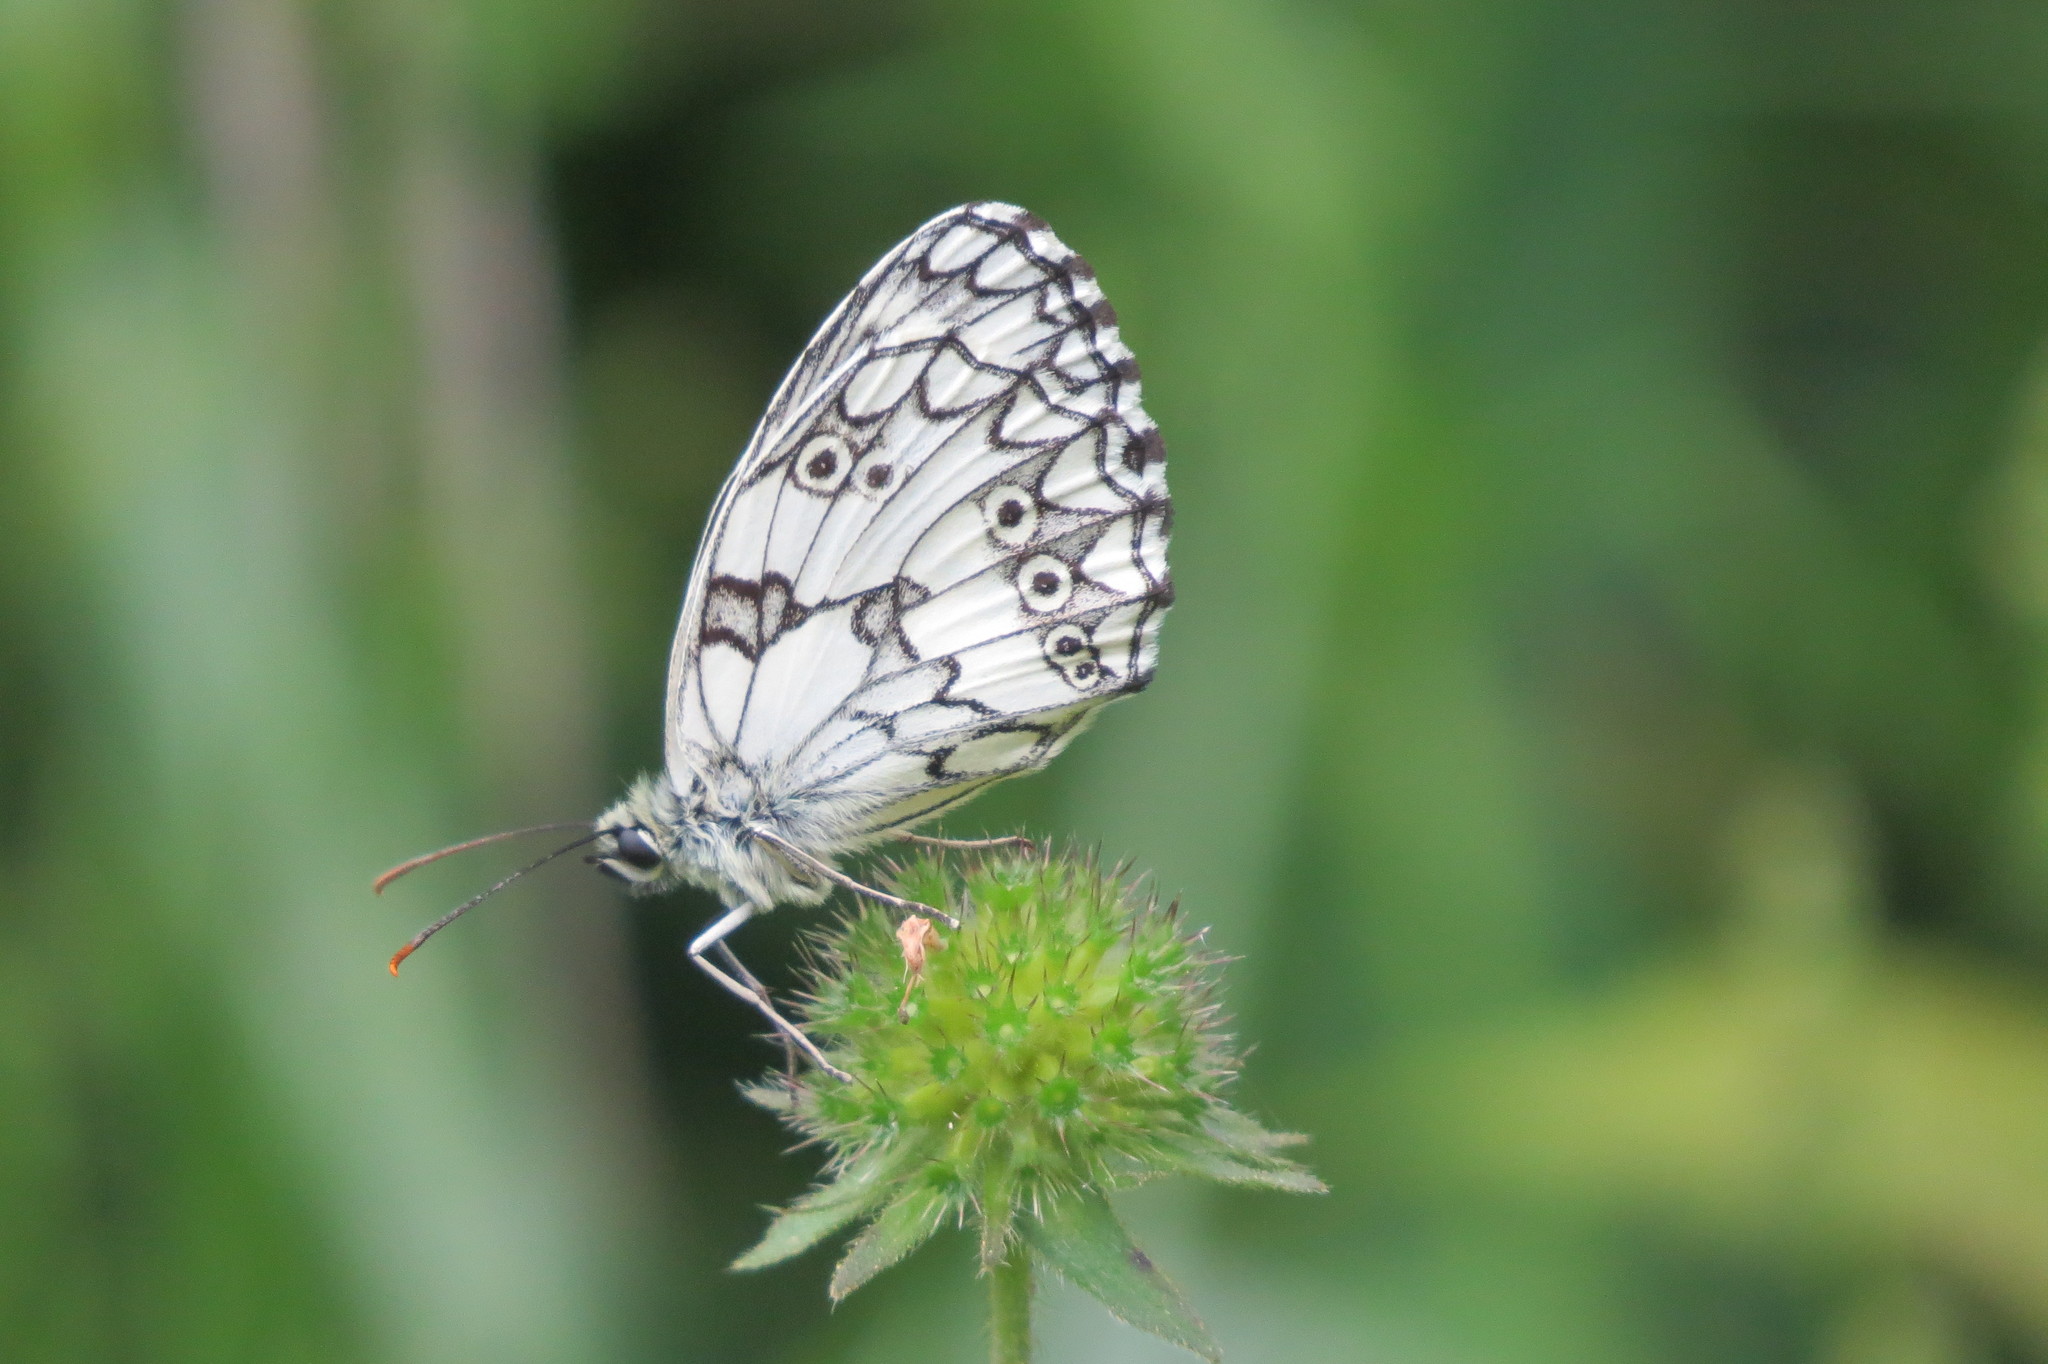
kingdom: Animalia
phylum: Arthropoda
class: Insecta
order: Lepidoptera
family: Nymphalidae
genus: Melanargia
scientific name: Melanargia galathea
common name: Marbled white
